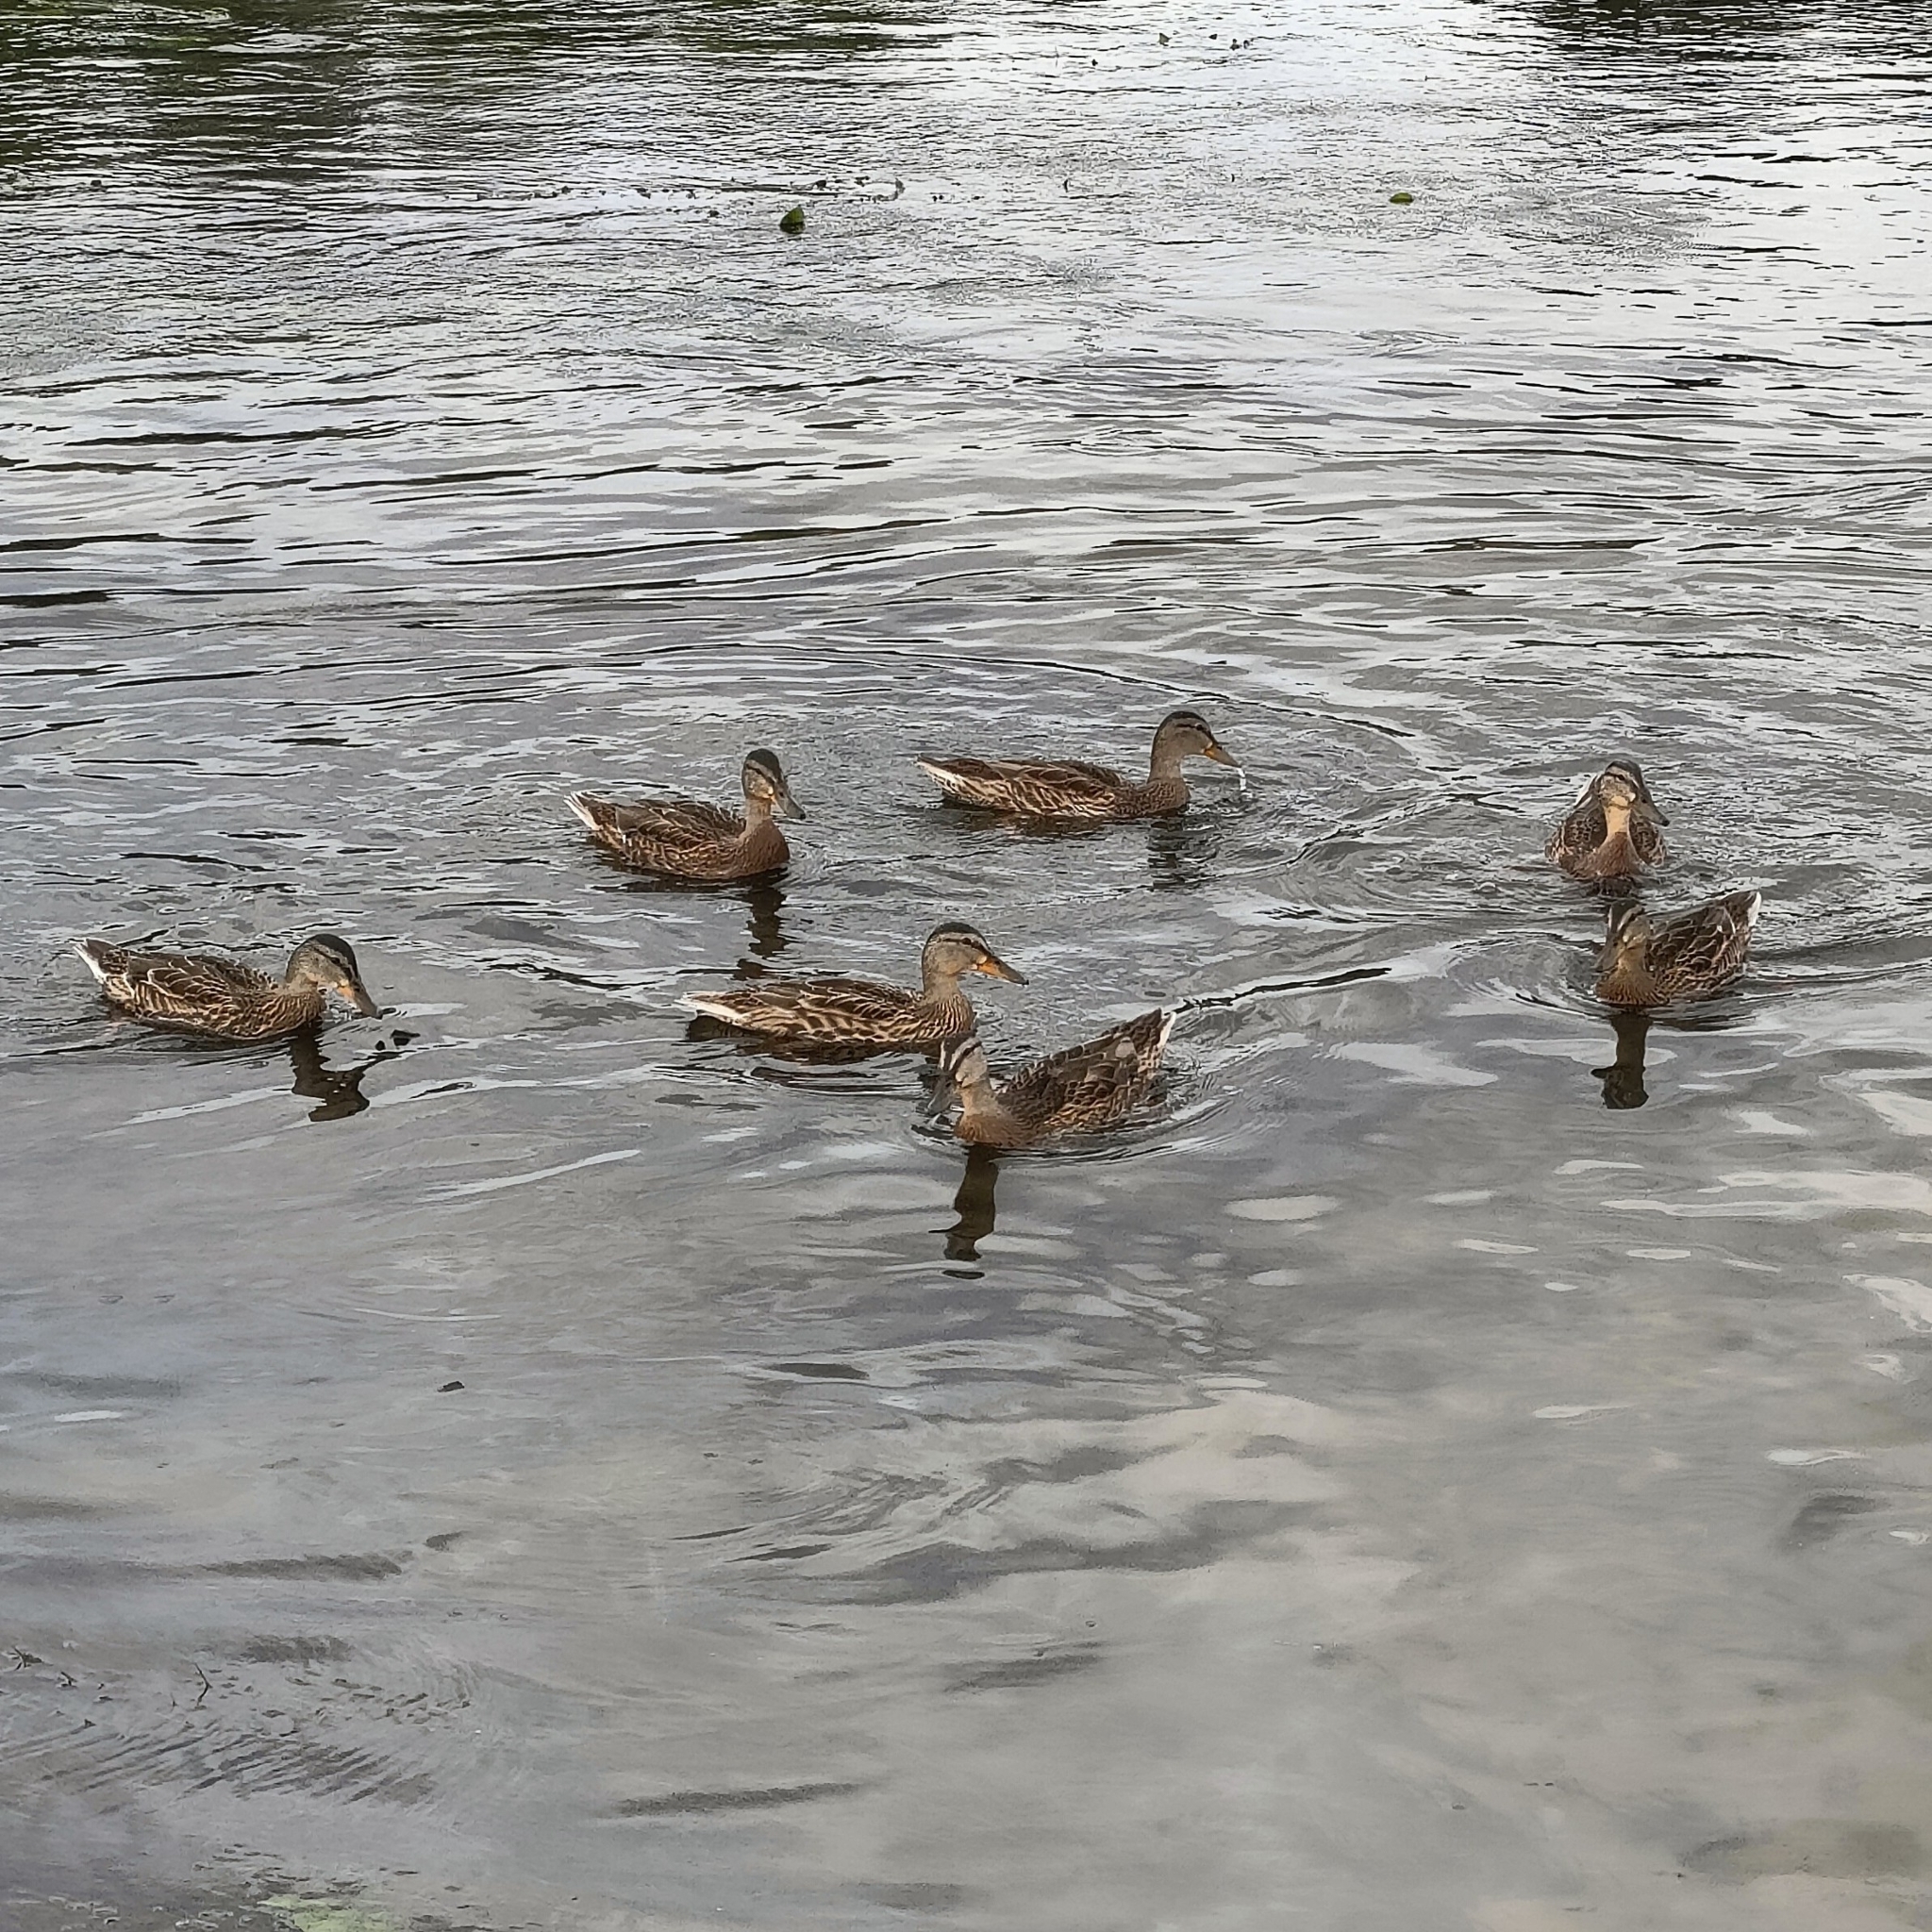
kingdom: Animalia
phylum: Chordata
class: Aves
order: Anseriformes
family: Anatidae
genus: Anas
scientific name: Anas platyrhynchos
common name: Mallard
